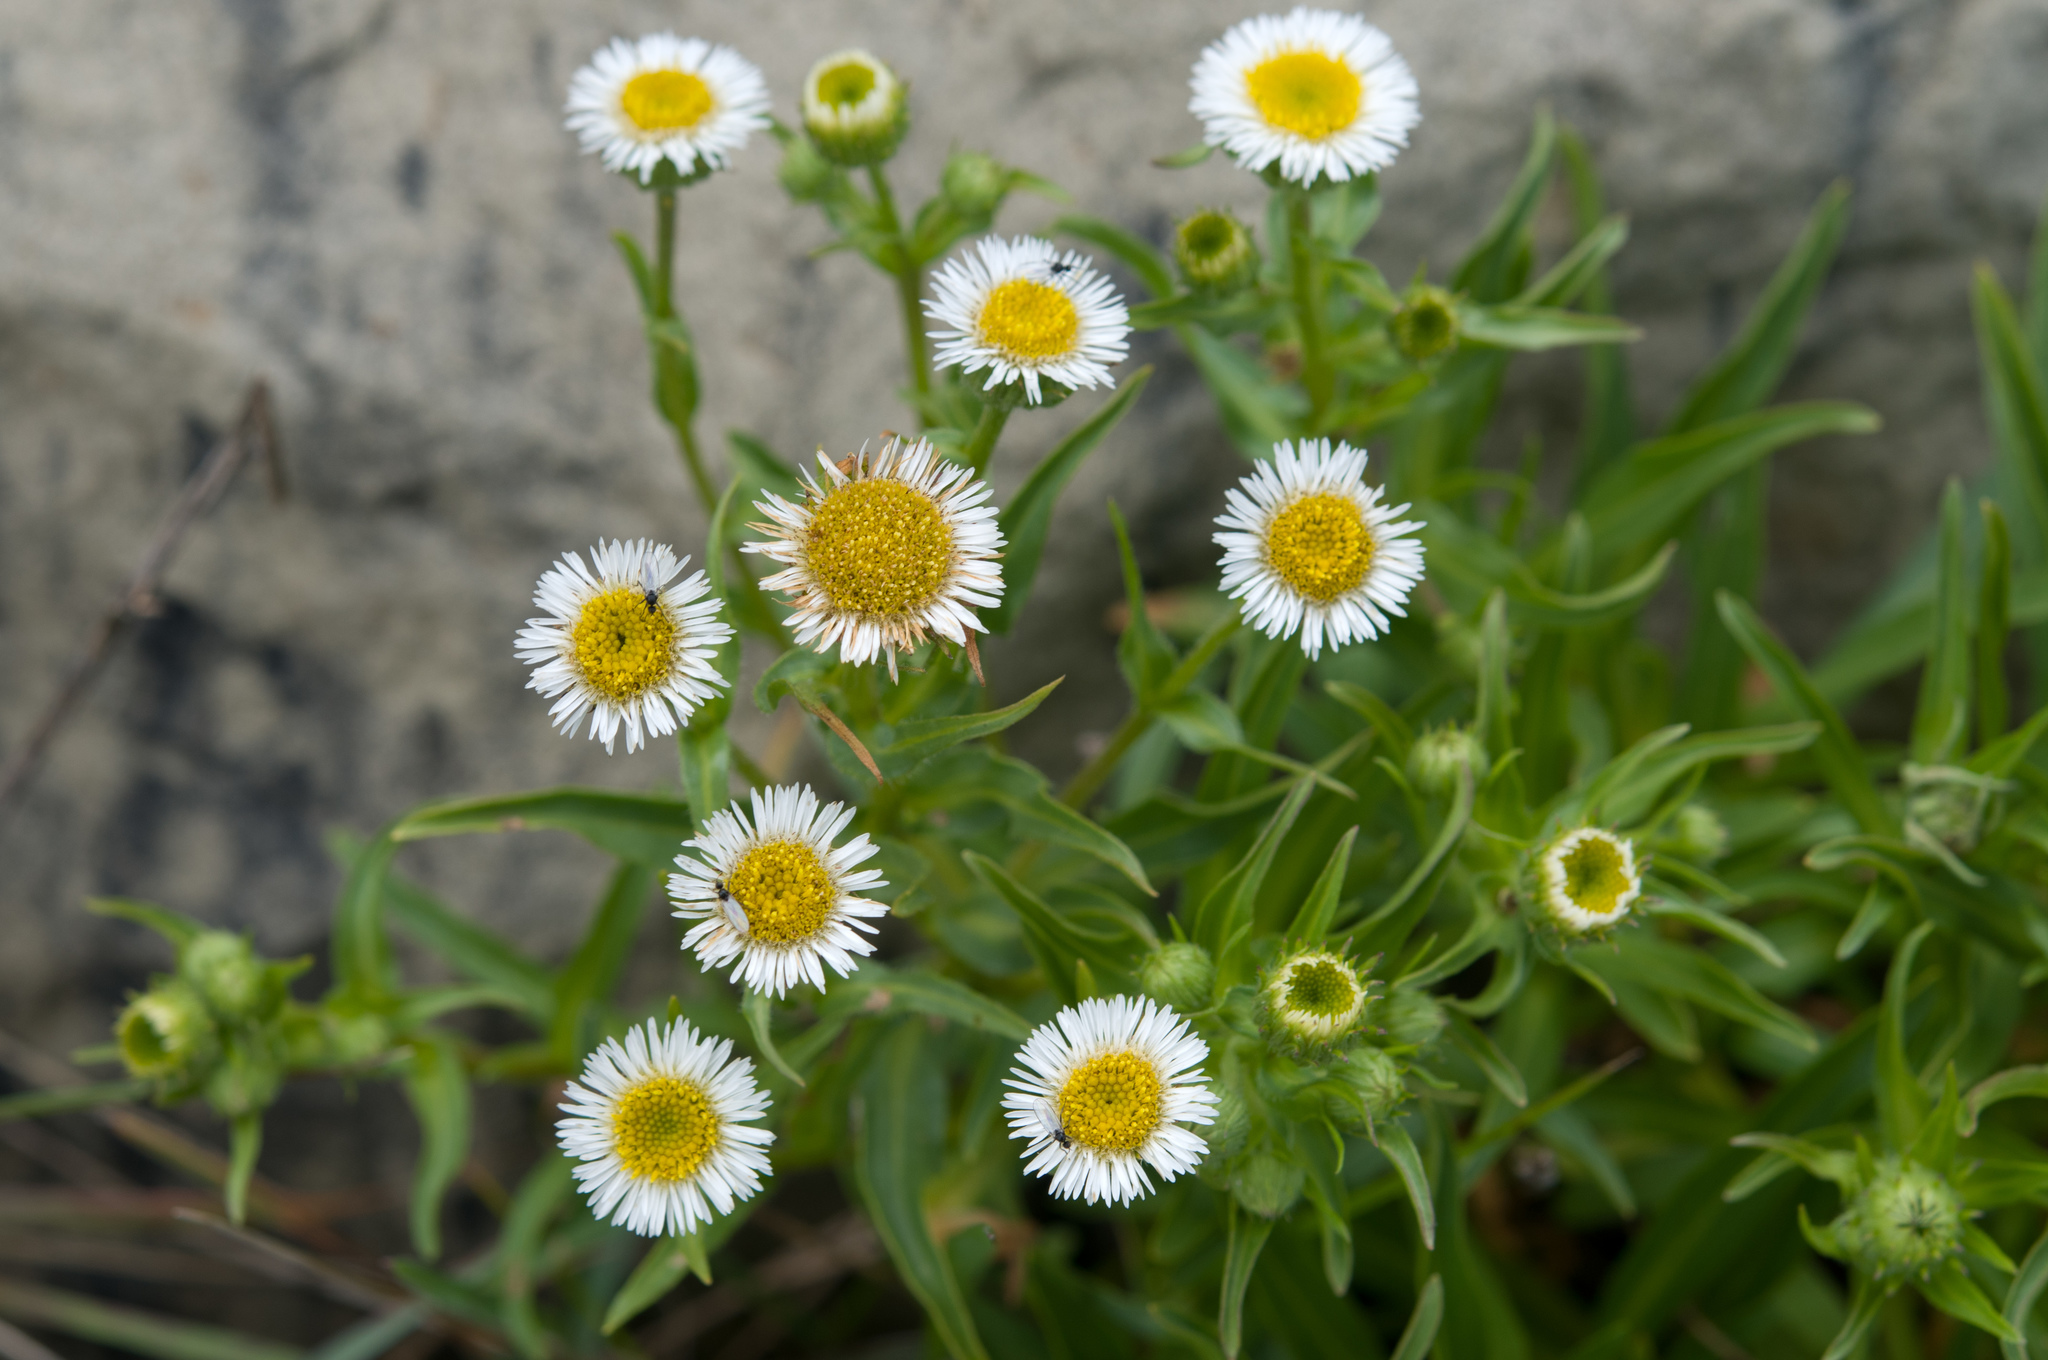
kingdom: Plantae
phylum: Tracheophyta
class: Magnoliopsida
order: Asterales
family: Asteraceae
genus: Erigeron
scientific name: Erigeron morrisonensis
